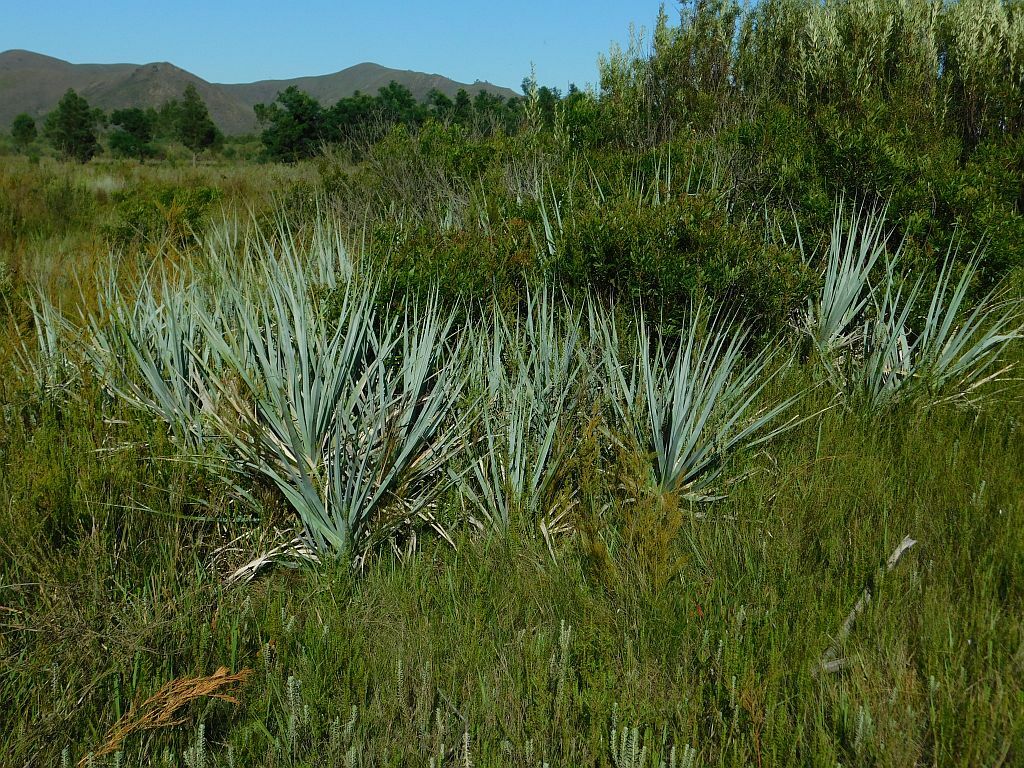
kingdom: Plantae
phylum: Tracheophyta
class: Liliopsida
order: Poales
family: Thurniaceae
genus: Prionium
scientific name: Prionium serratum
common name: Palmiet
